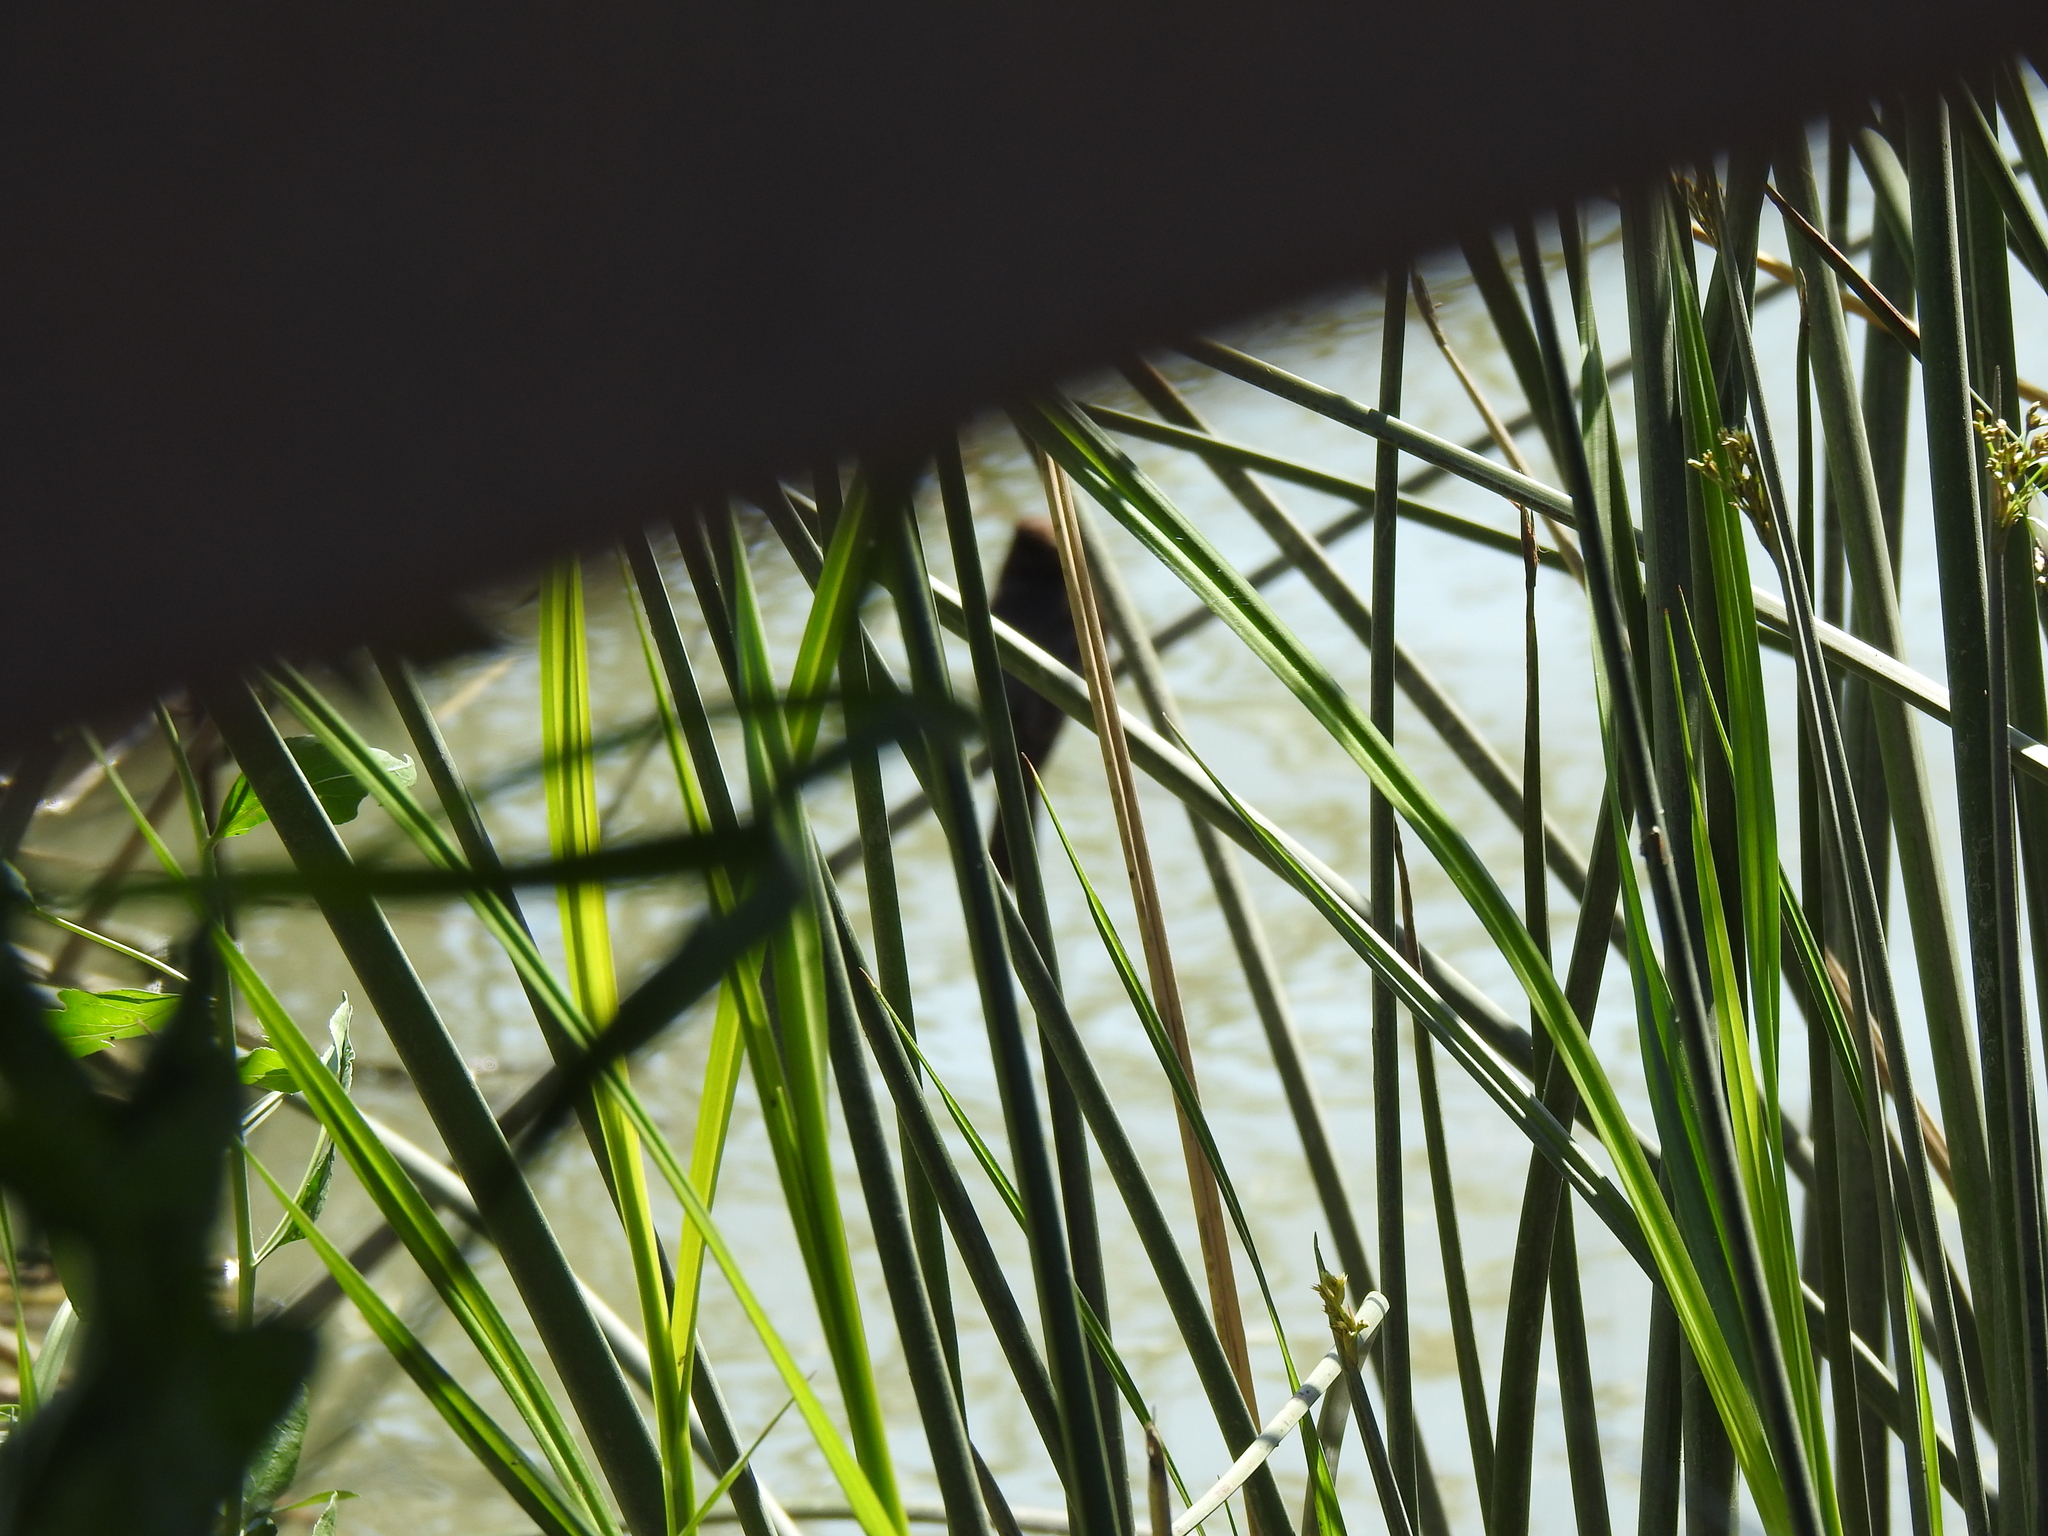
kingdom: Animalia
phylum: Chordata
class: Aves
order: Passeriformes
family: Tyrannidae
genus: Sayornis
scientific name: Sayornis nigricans
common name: Black phoebe
